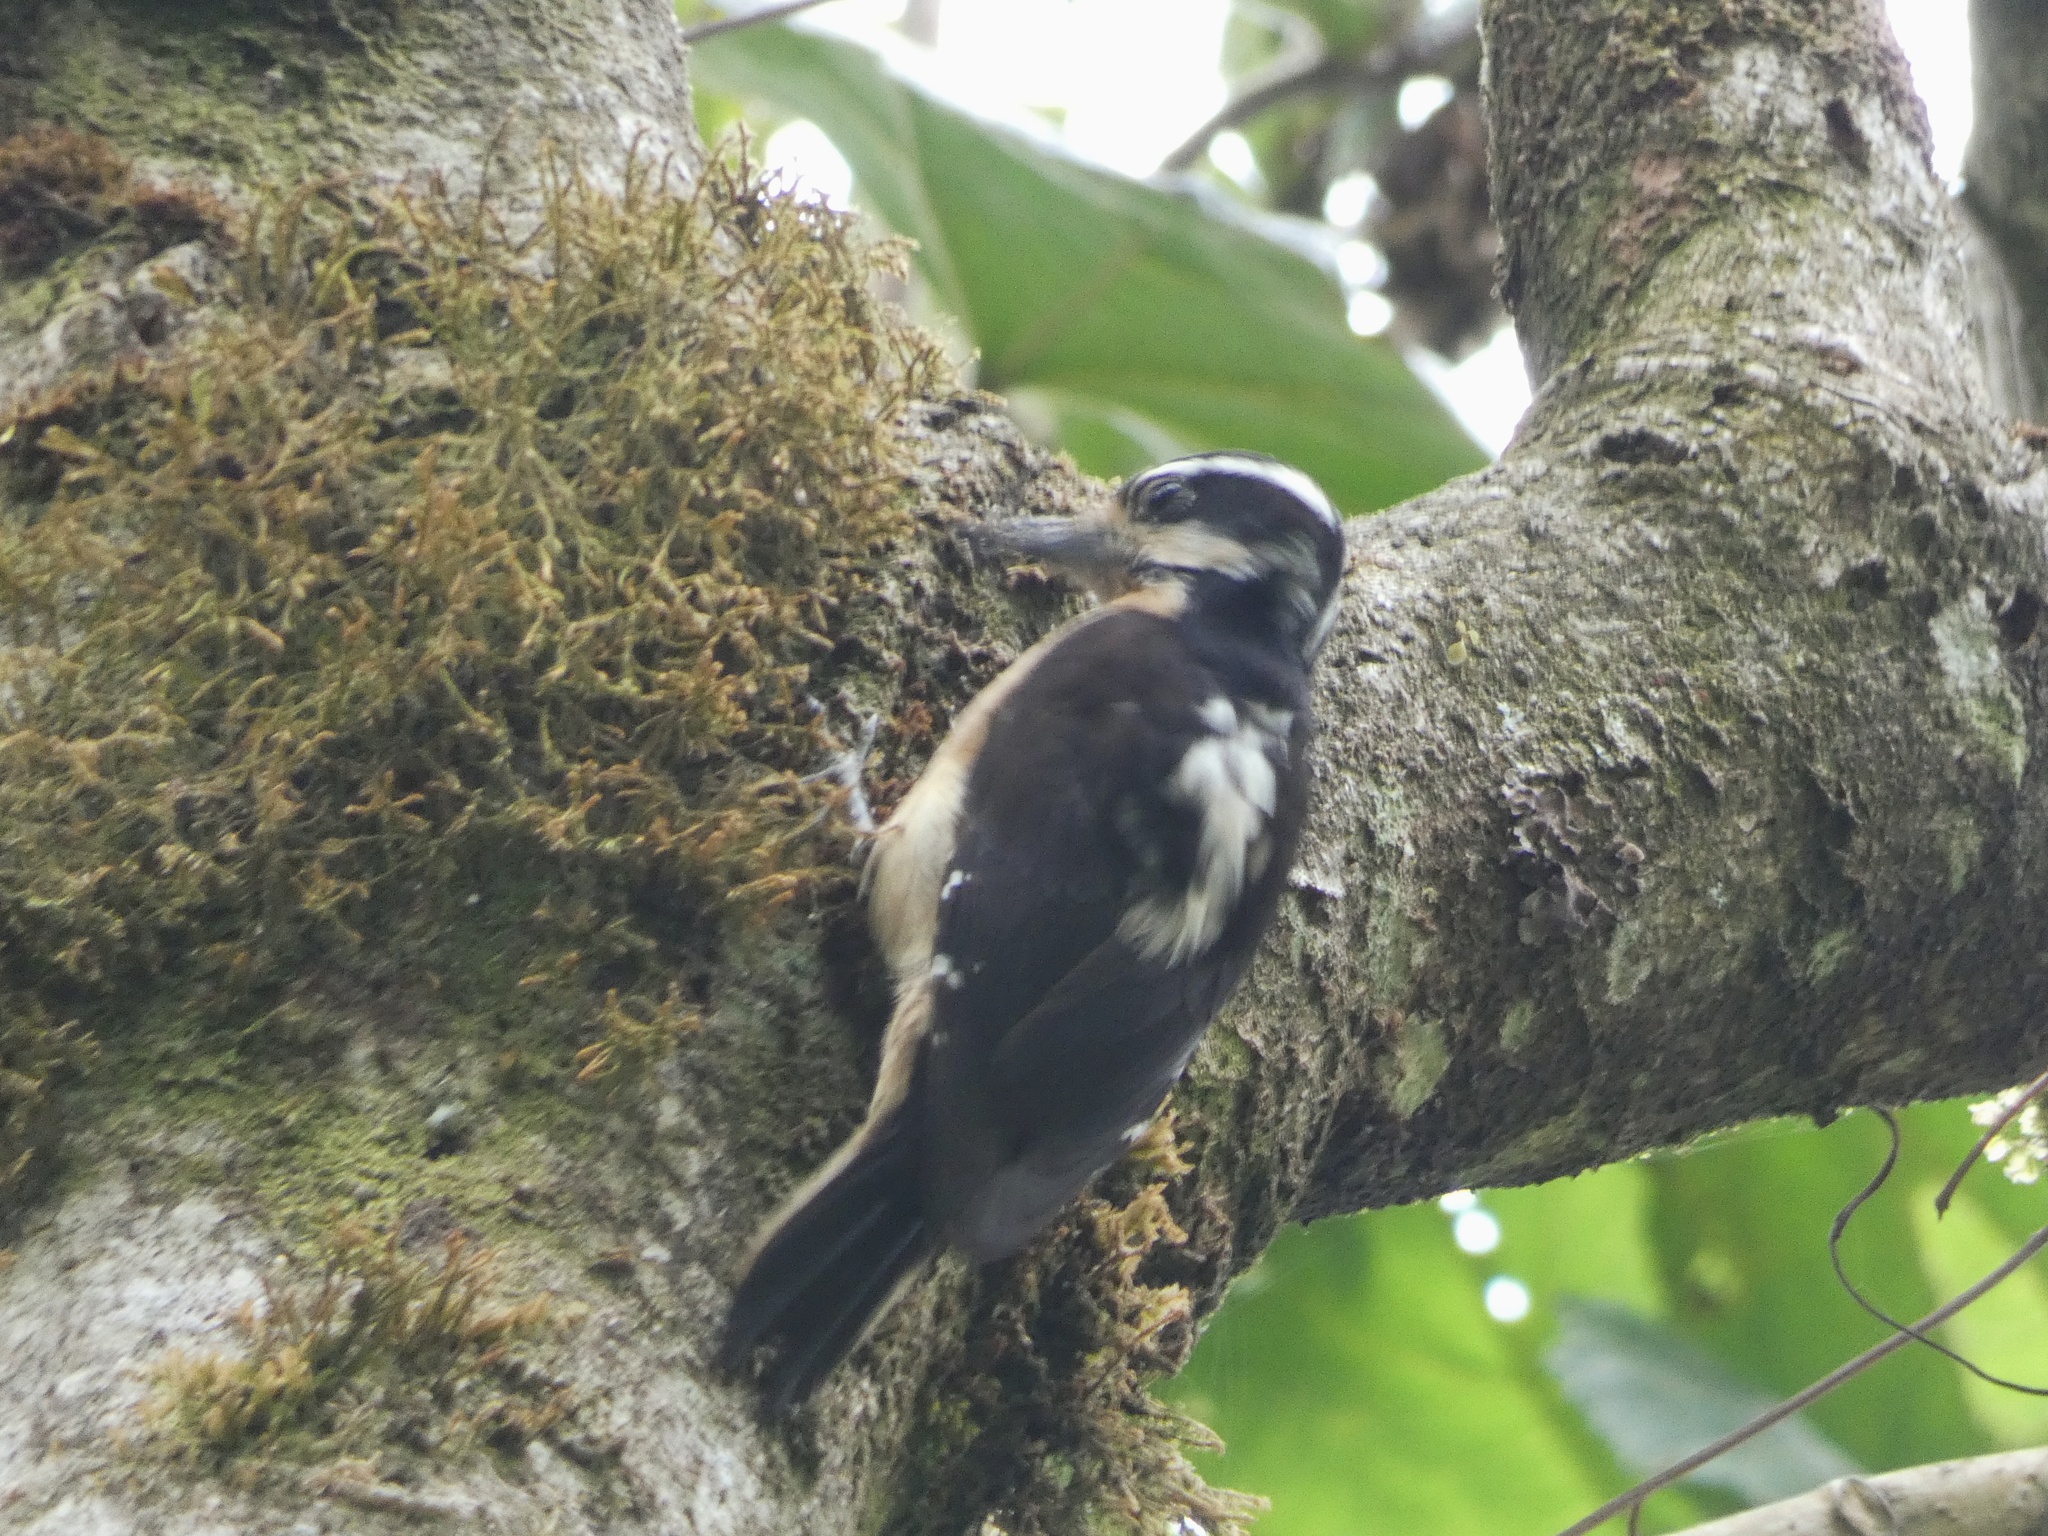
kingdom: Animalia
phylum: Chordata
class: Aves
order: Piciformes
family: Picidae
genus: Leuconotopicus
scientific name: Leuconotopicus villosus
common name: Hairy woodpecker
